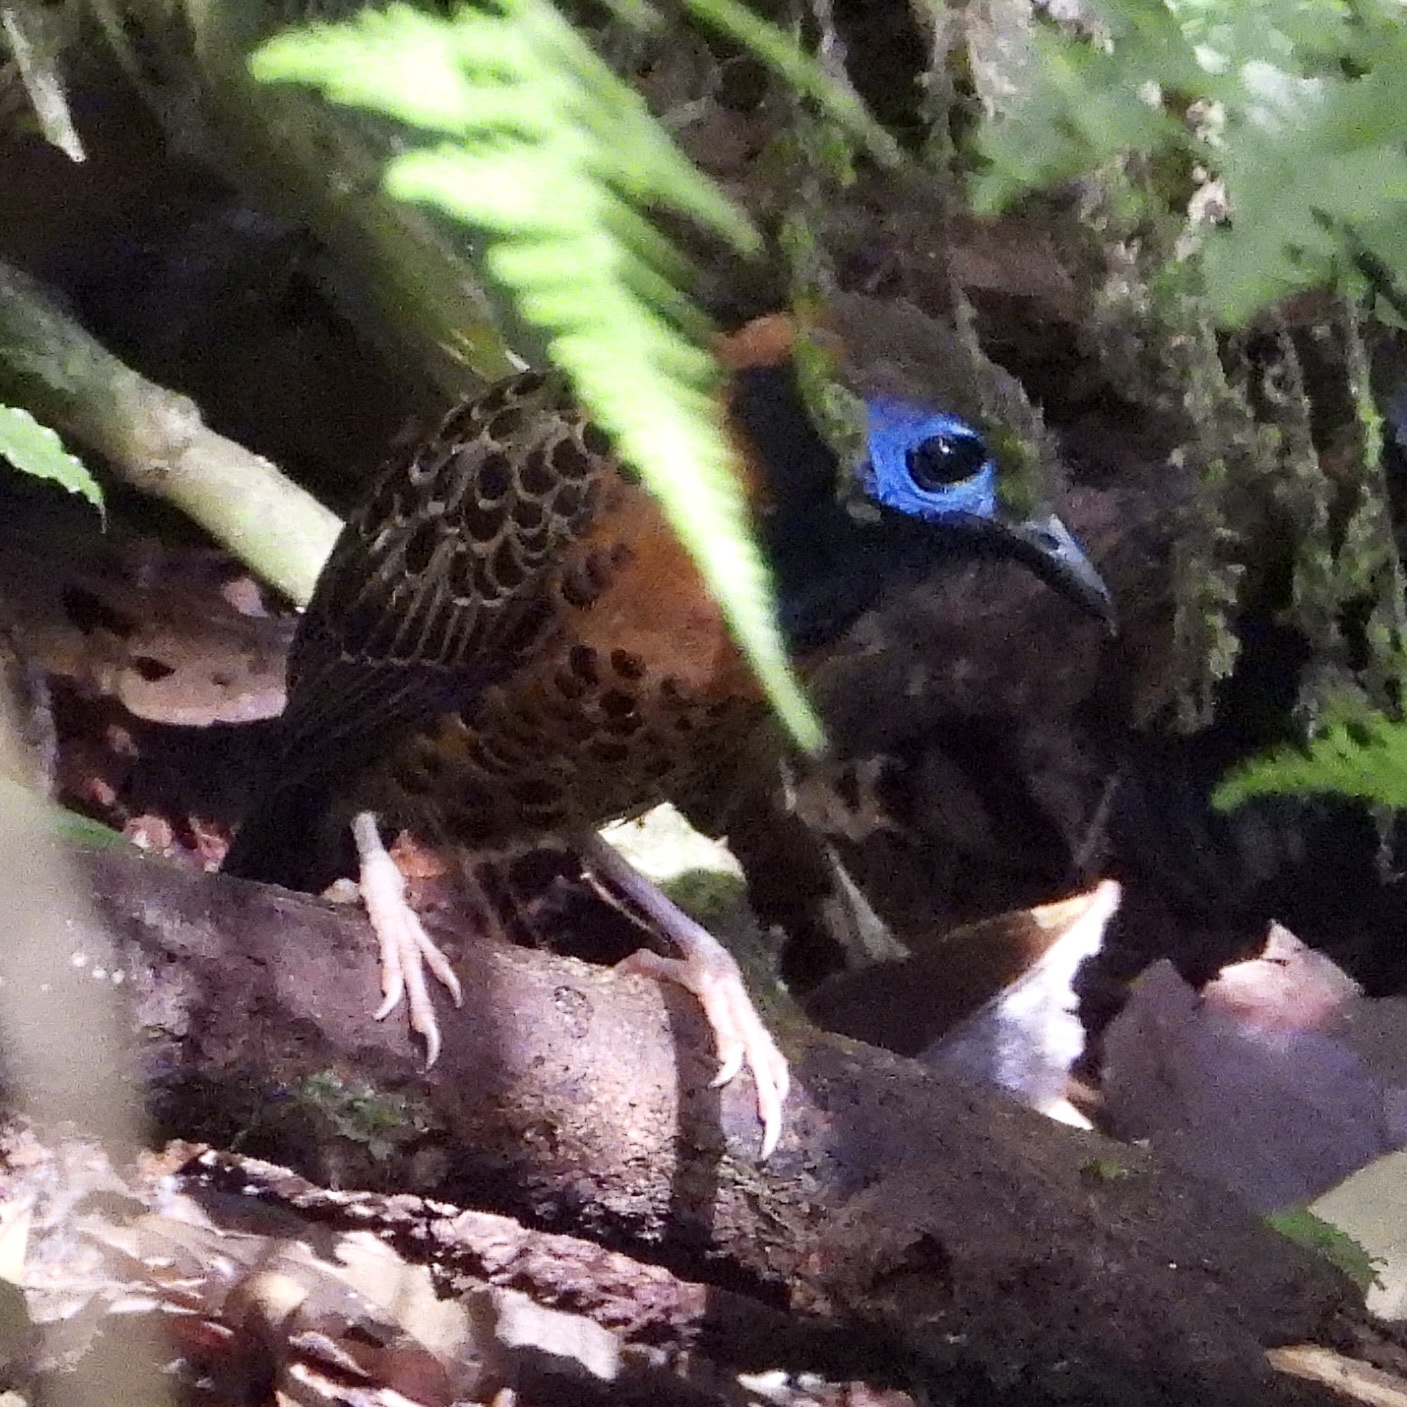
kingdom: Animalia
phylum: Chordata
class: Aves
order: Passeriformes
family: Thamnophilidae
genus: Phaenostictus
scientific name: Phaenostictus mcleannani
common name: Ocellated antbird
